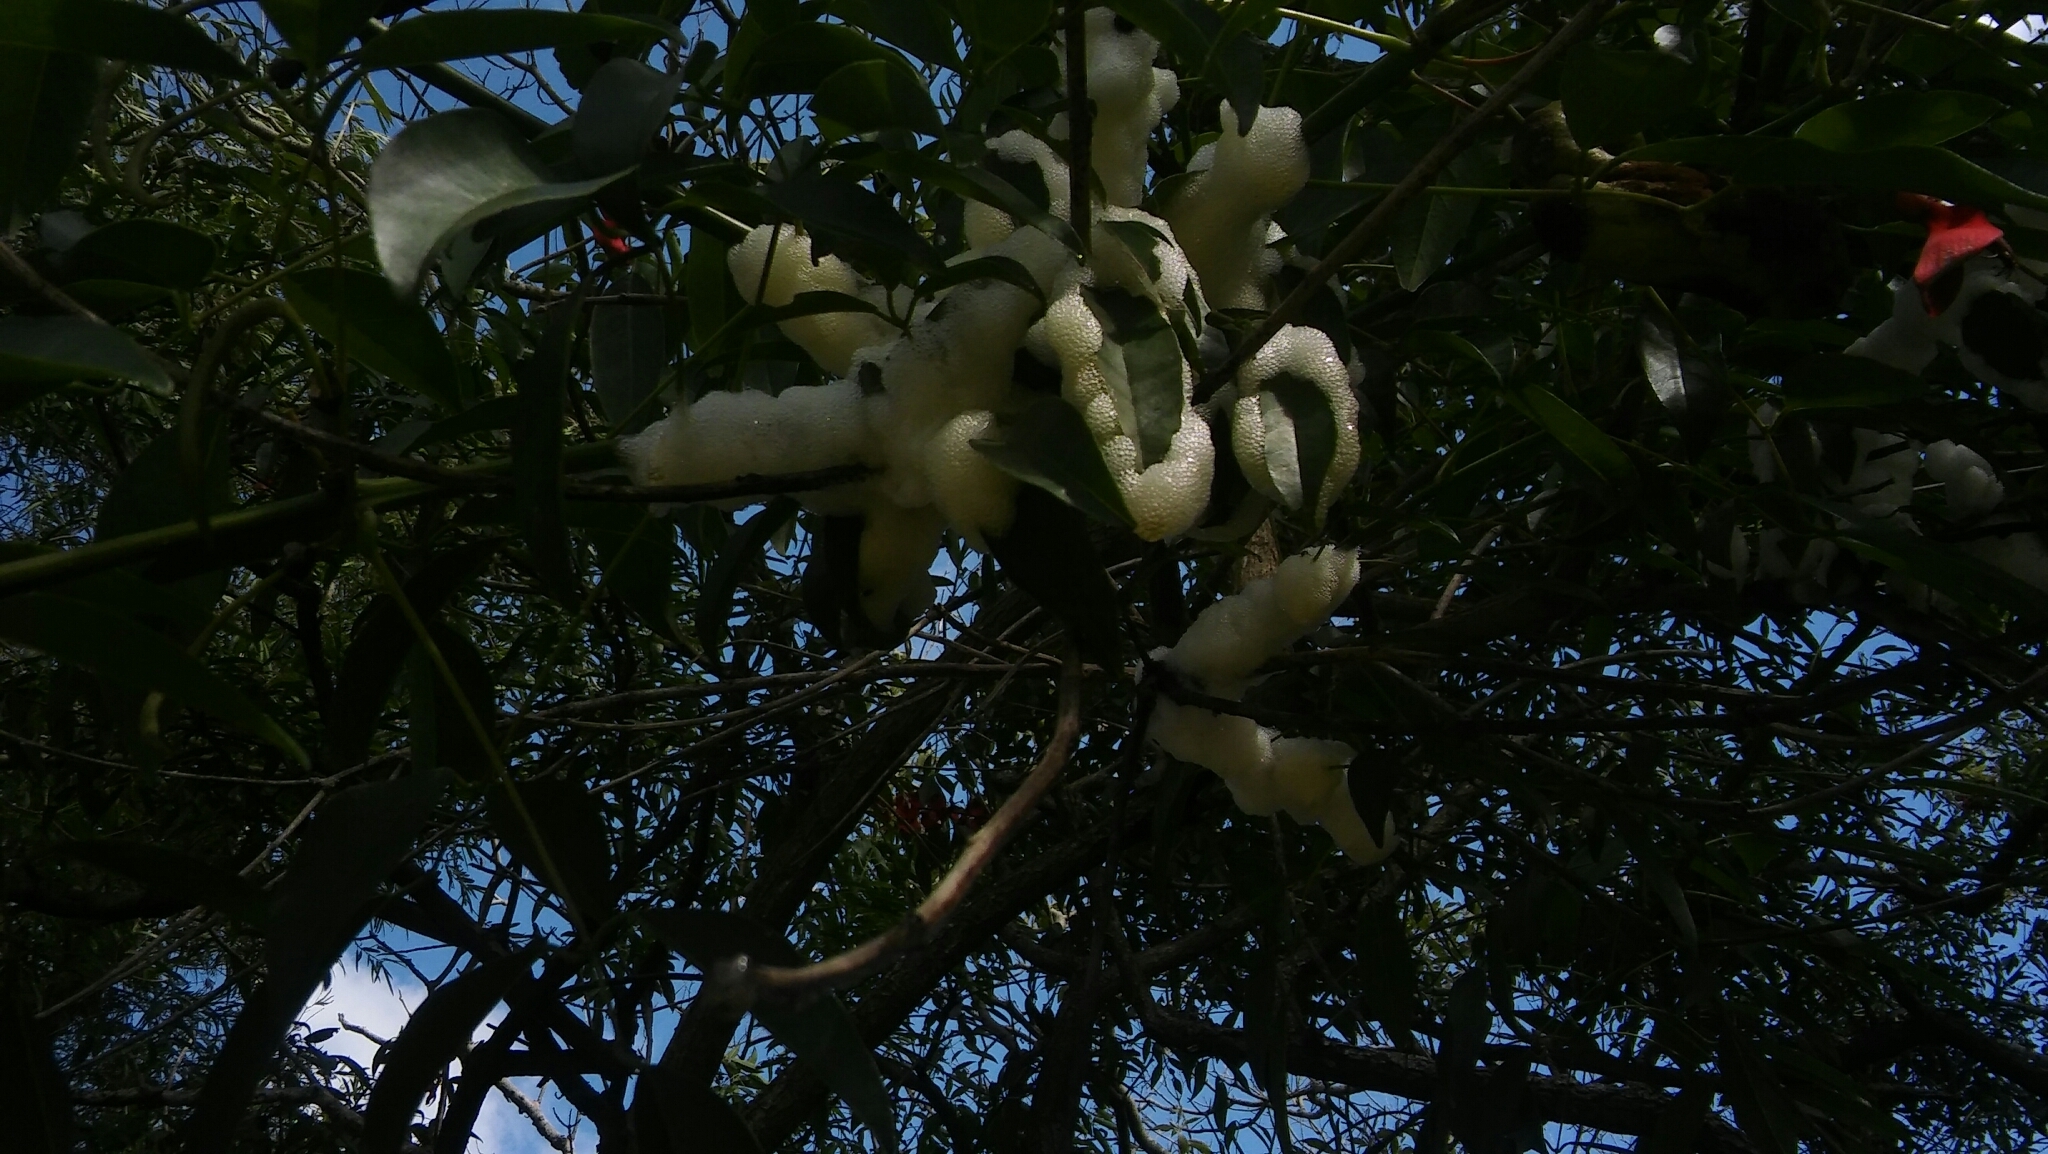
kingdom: Animalia
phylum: Arthropoda
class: Insecta
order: Hemiptera
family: Aphrophoridae
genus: Cephisus
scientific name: Cephisus siccifolius
